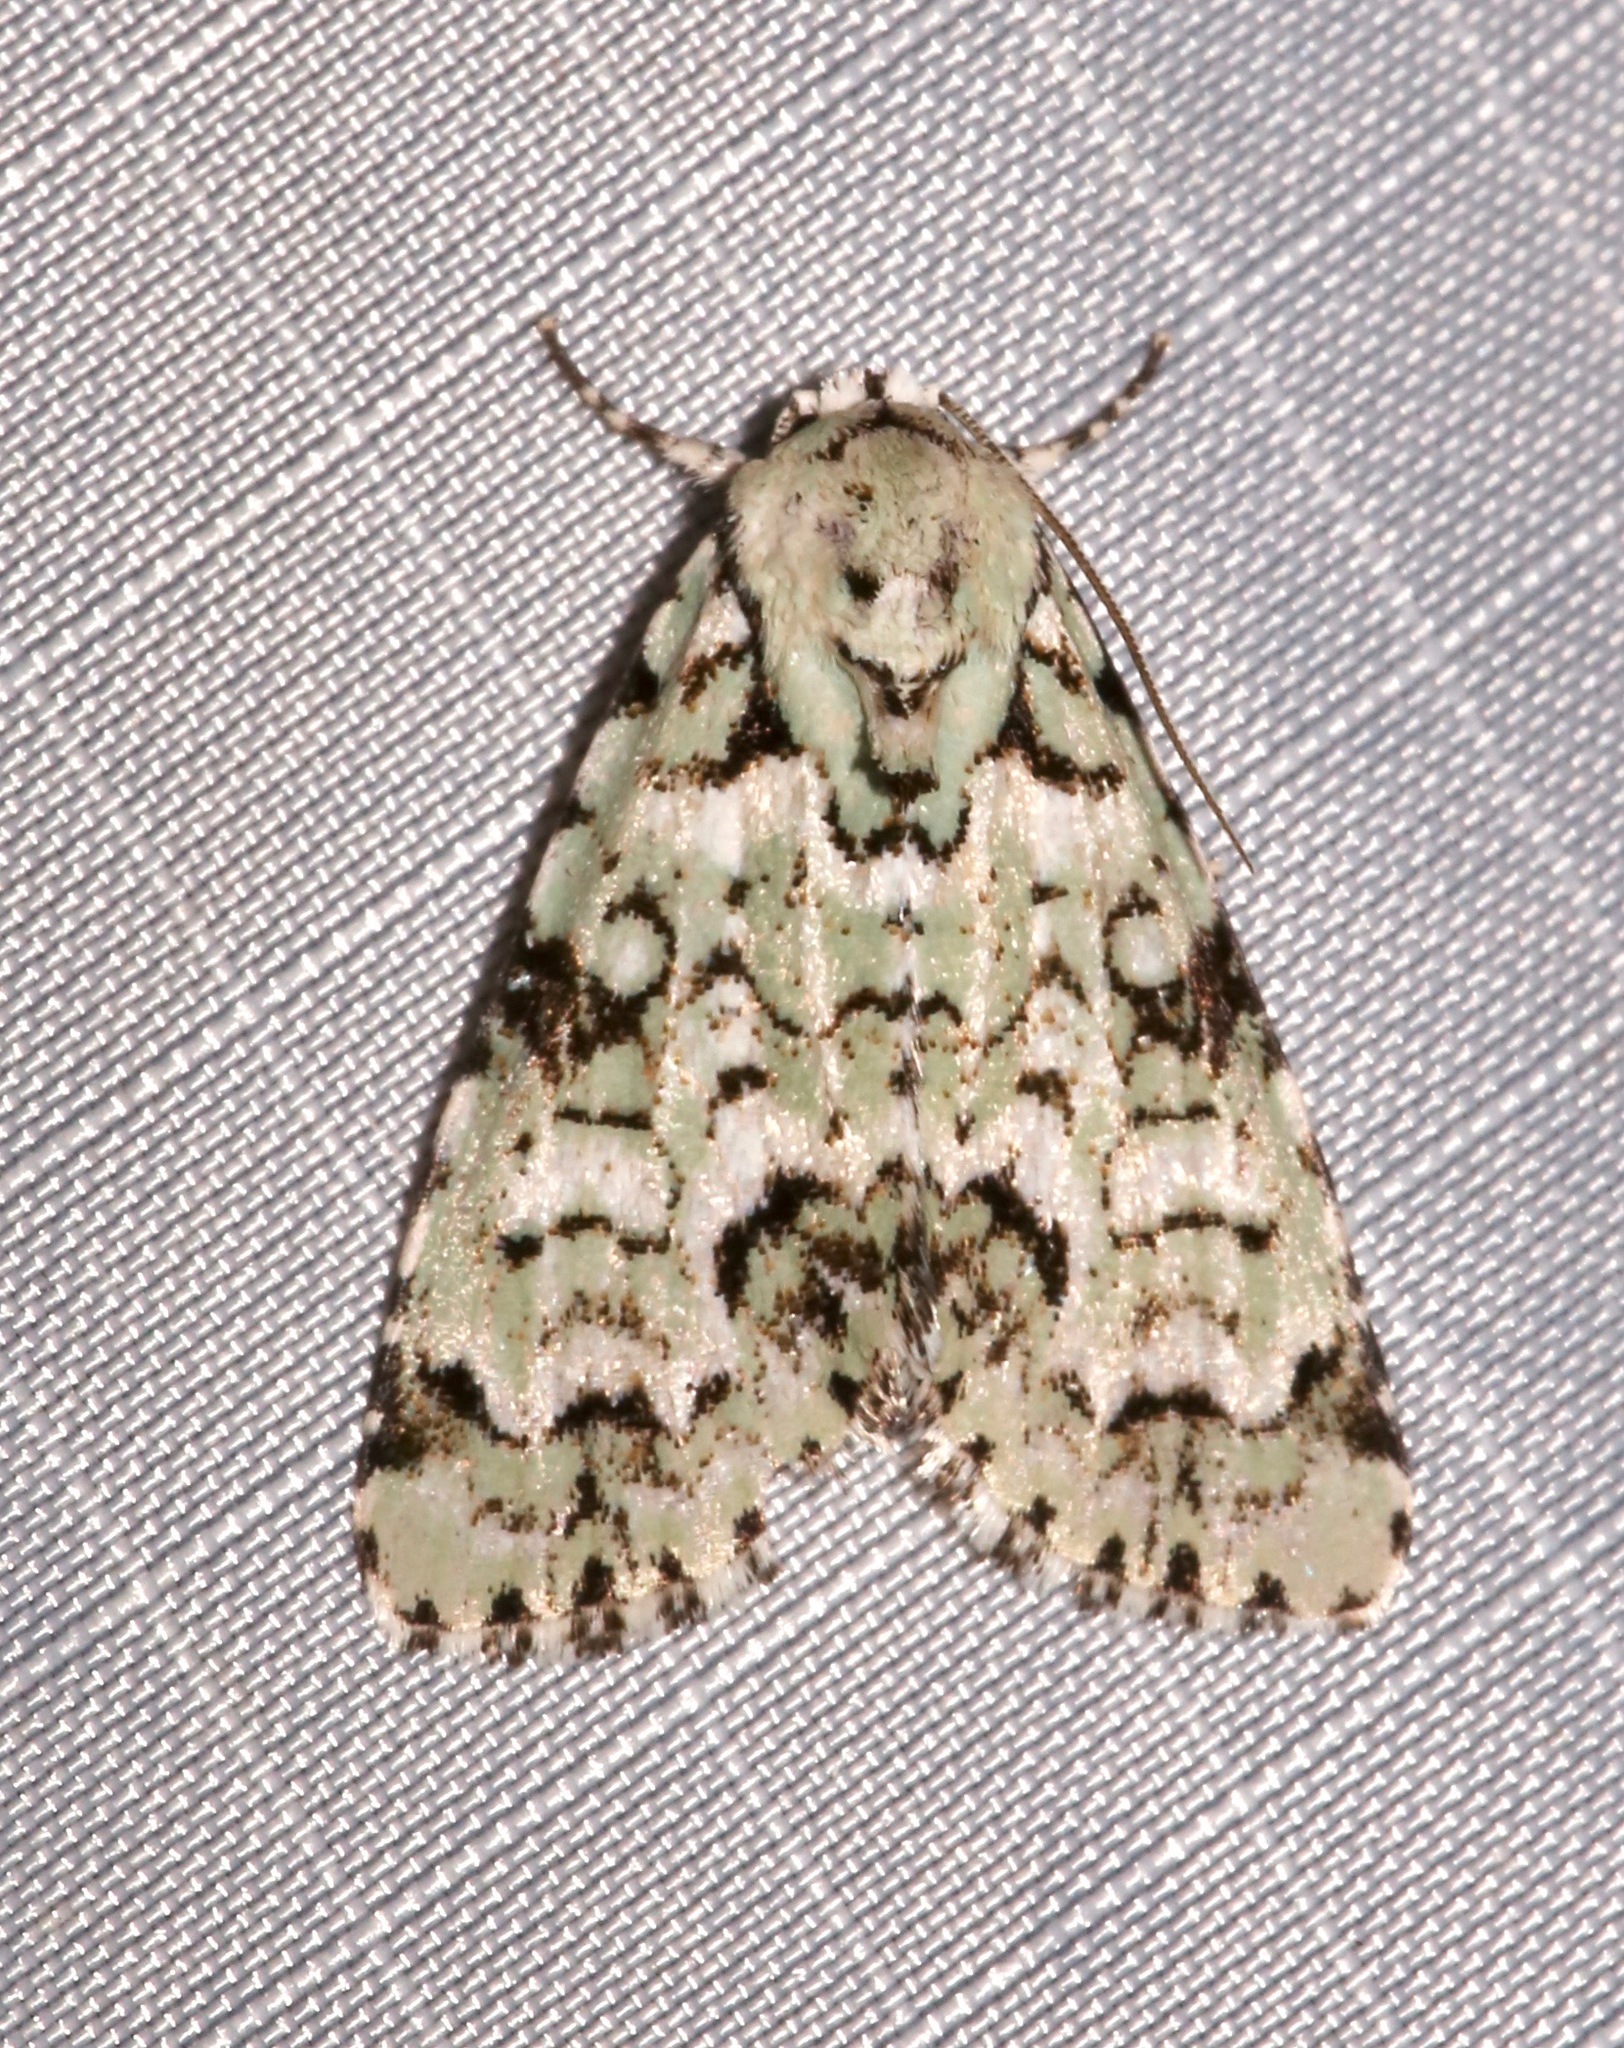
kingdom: Animalia
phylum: Arthropoda
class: Insecta
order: Lepidoptera
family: Noctuidae
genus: Chloronycta
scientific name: Chloronycta tybo
